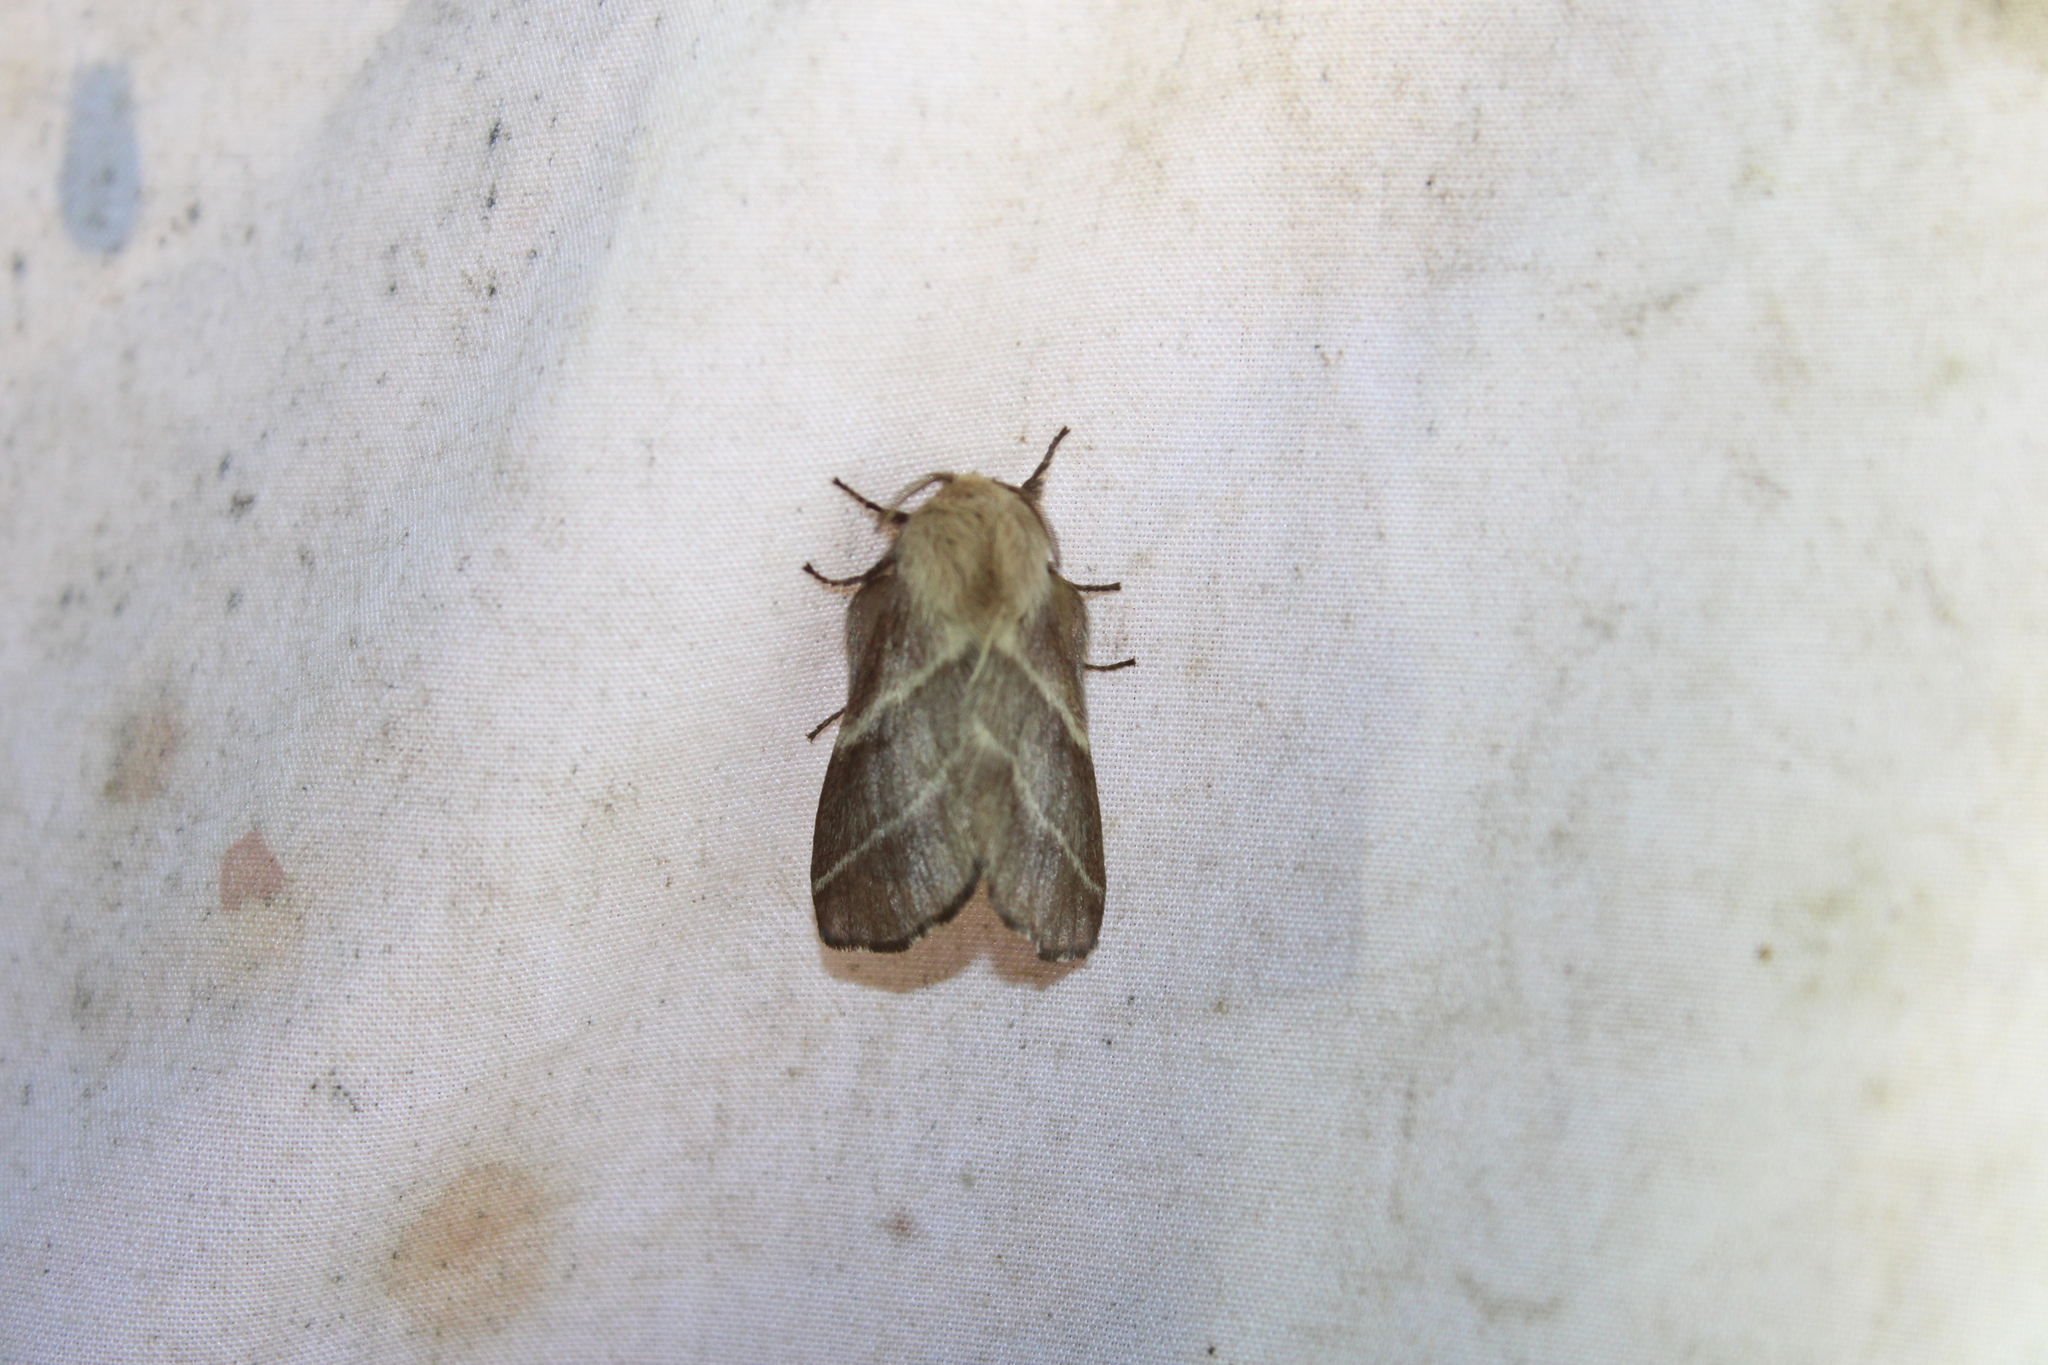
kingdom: Animalia
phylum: Arthropoda
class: Insecta
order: Lepidoptera
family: Lasiocampidae
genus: Malacosoma
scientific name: Malacosoma americana
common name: Eastern tent caterpillar moth
